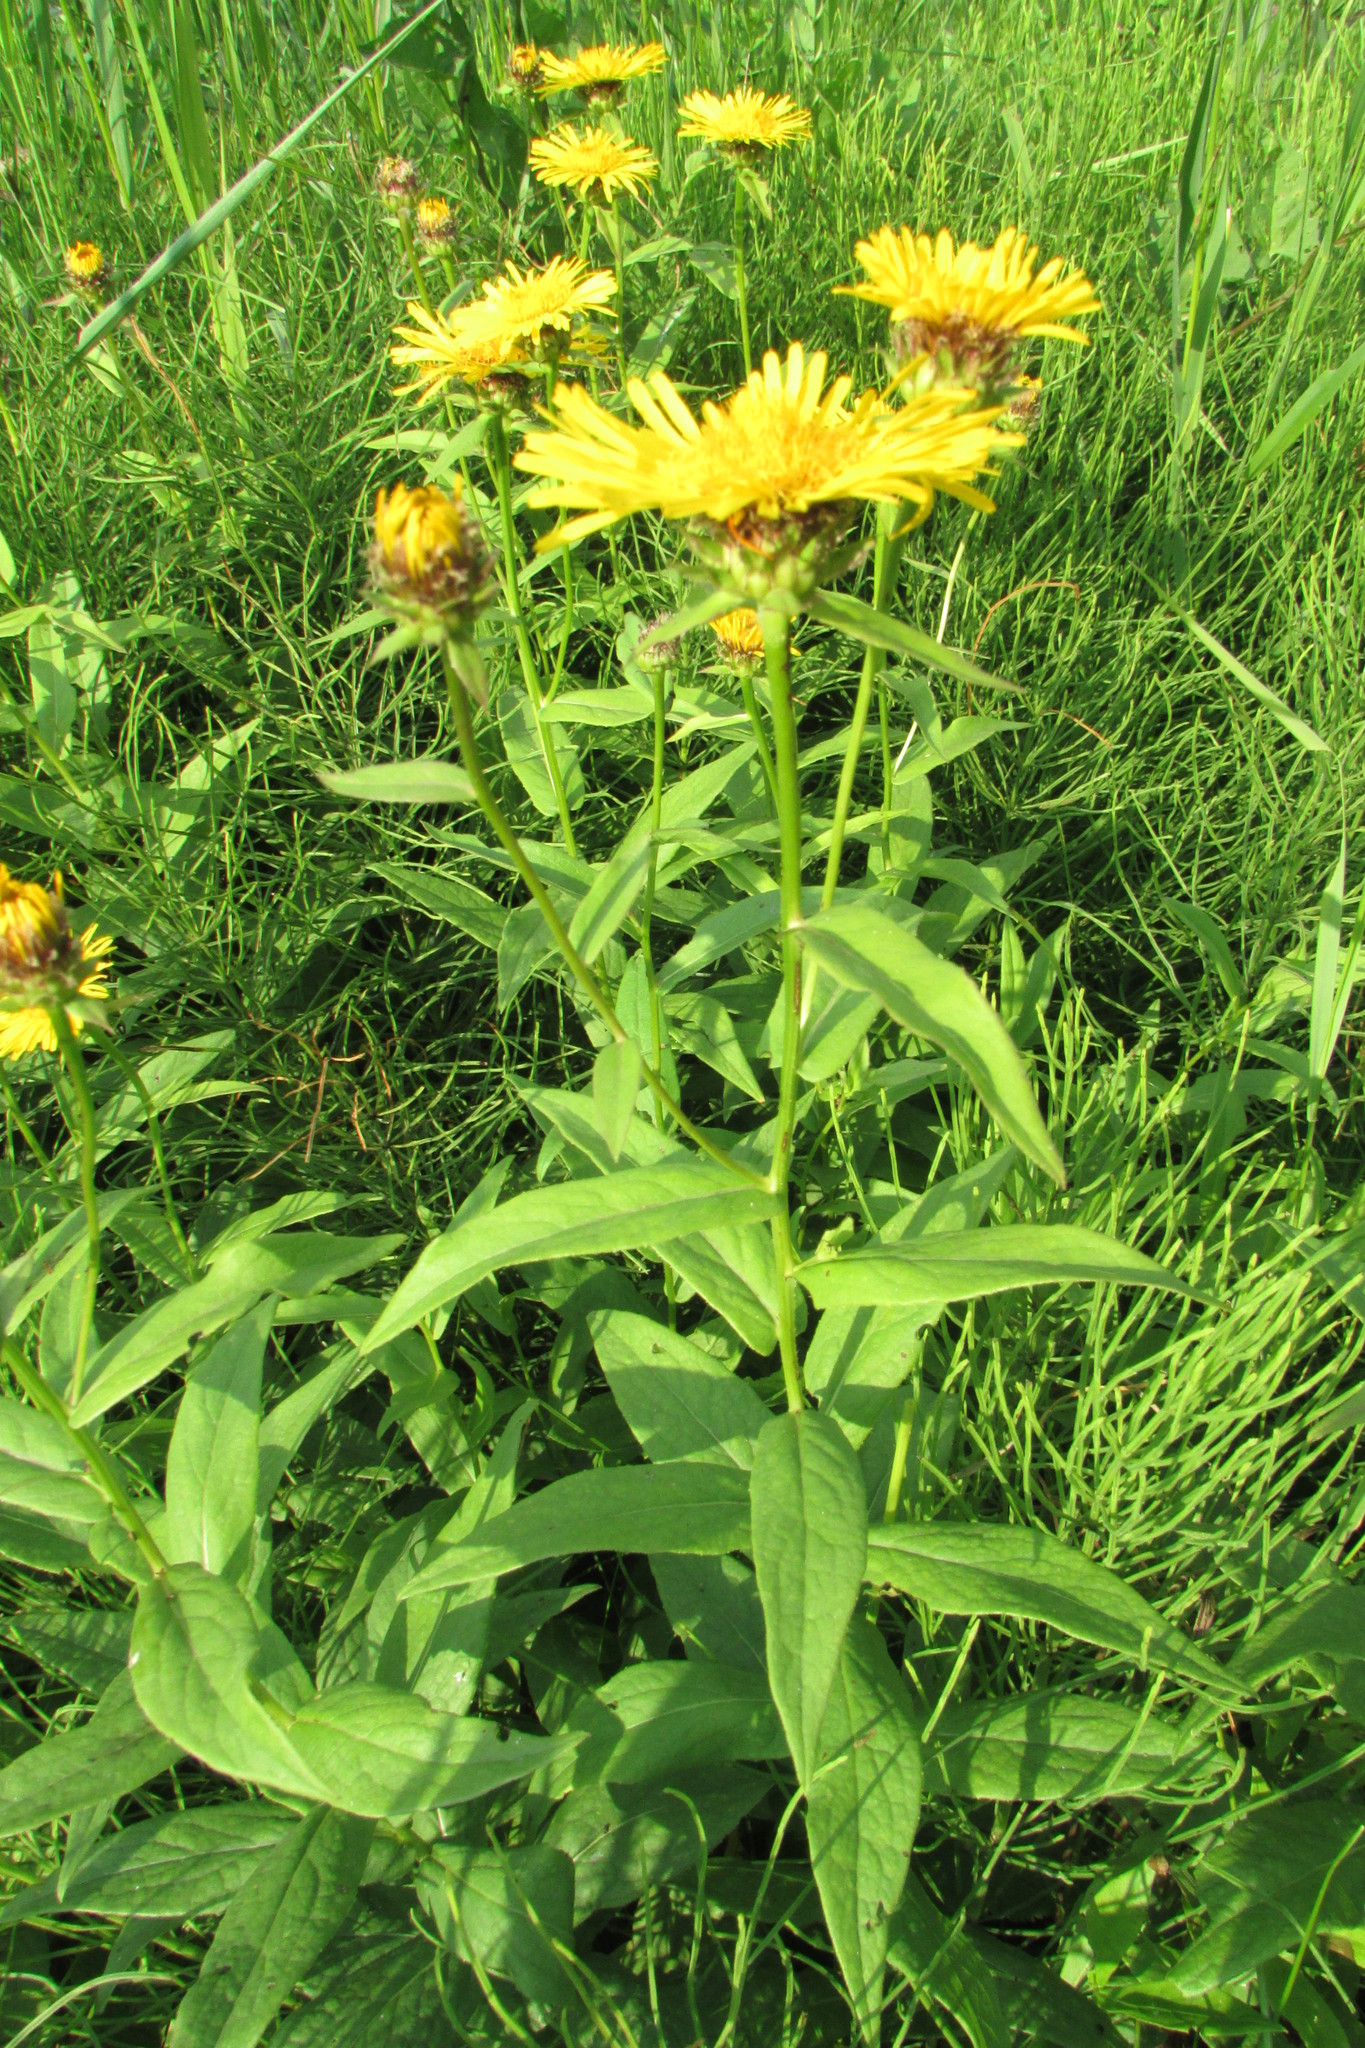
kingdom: Plantae
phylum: Tracheophyta
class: Magnoliopsida
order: Asterales
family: Asteraceae
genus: Pentanema
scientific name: Pentanema salicinum
